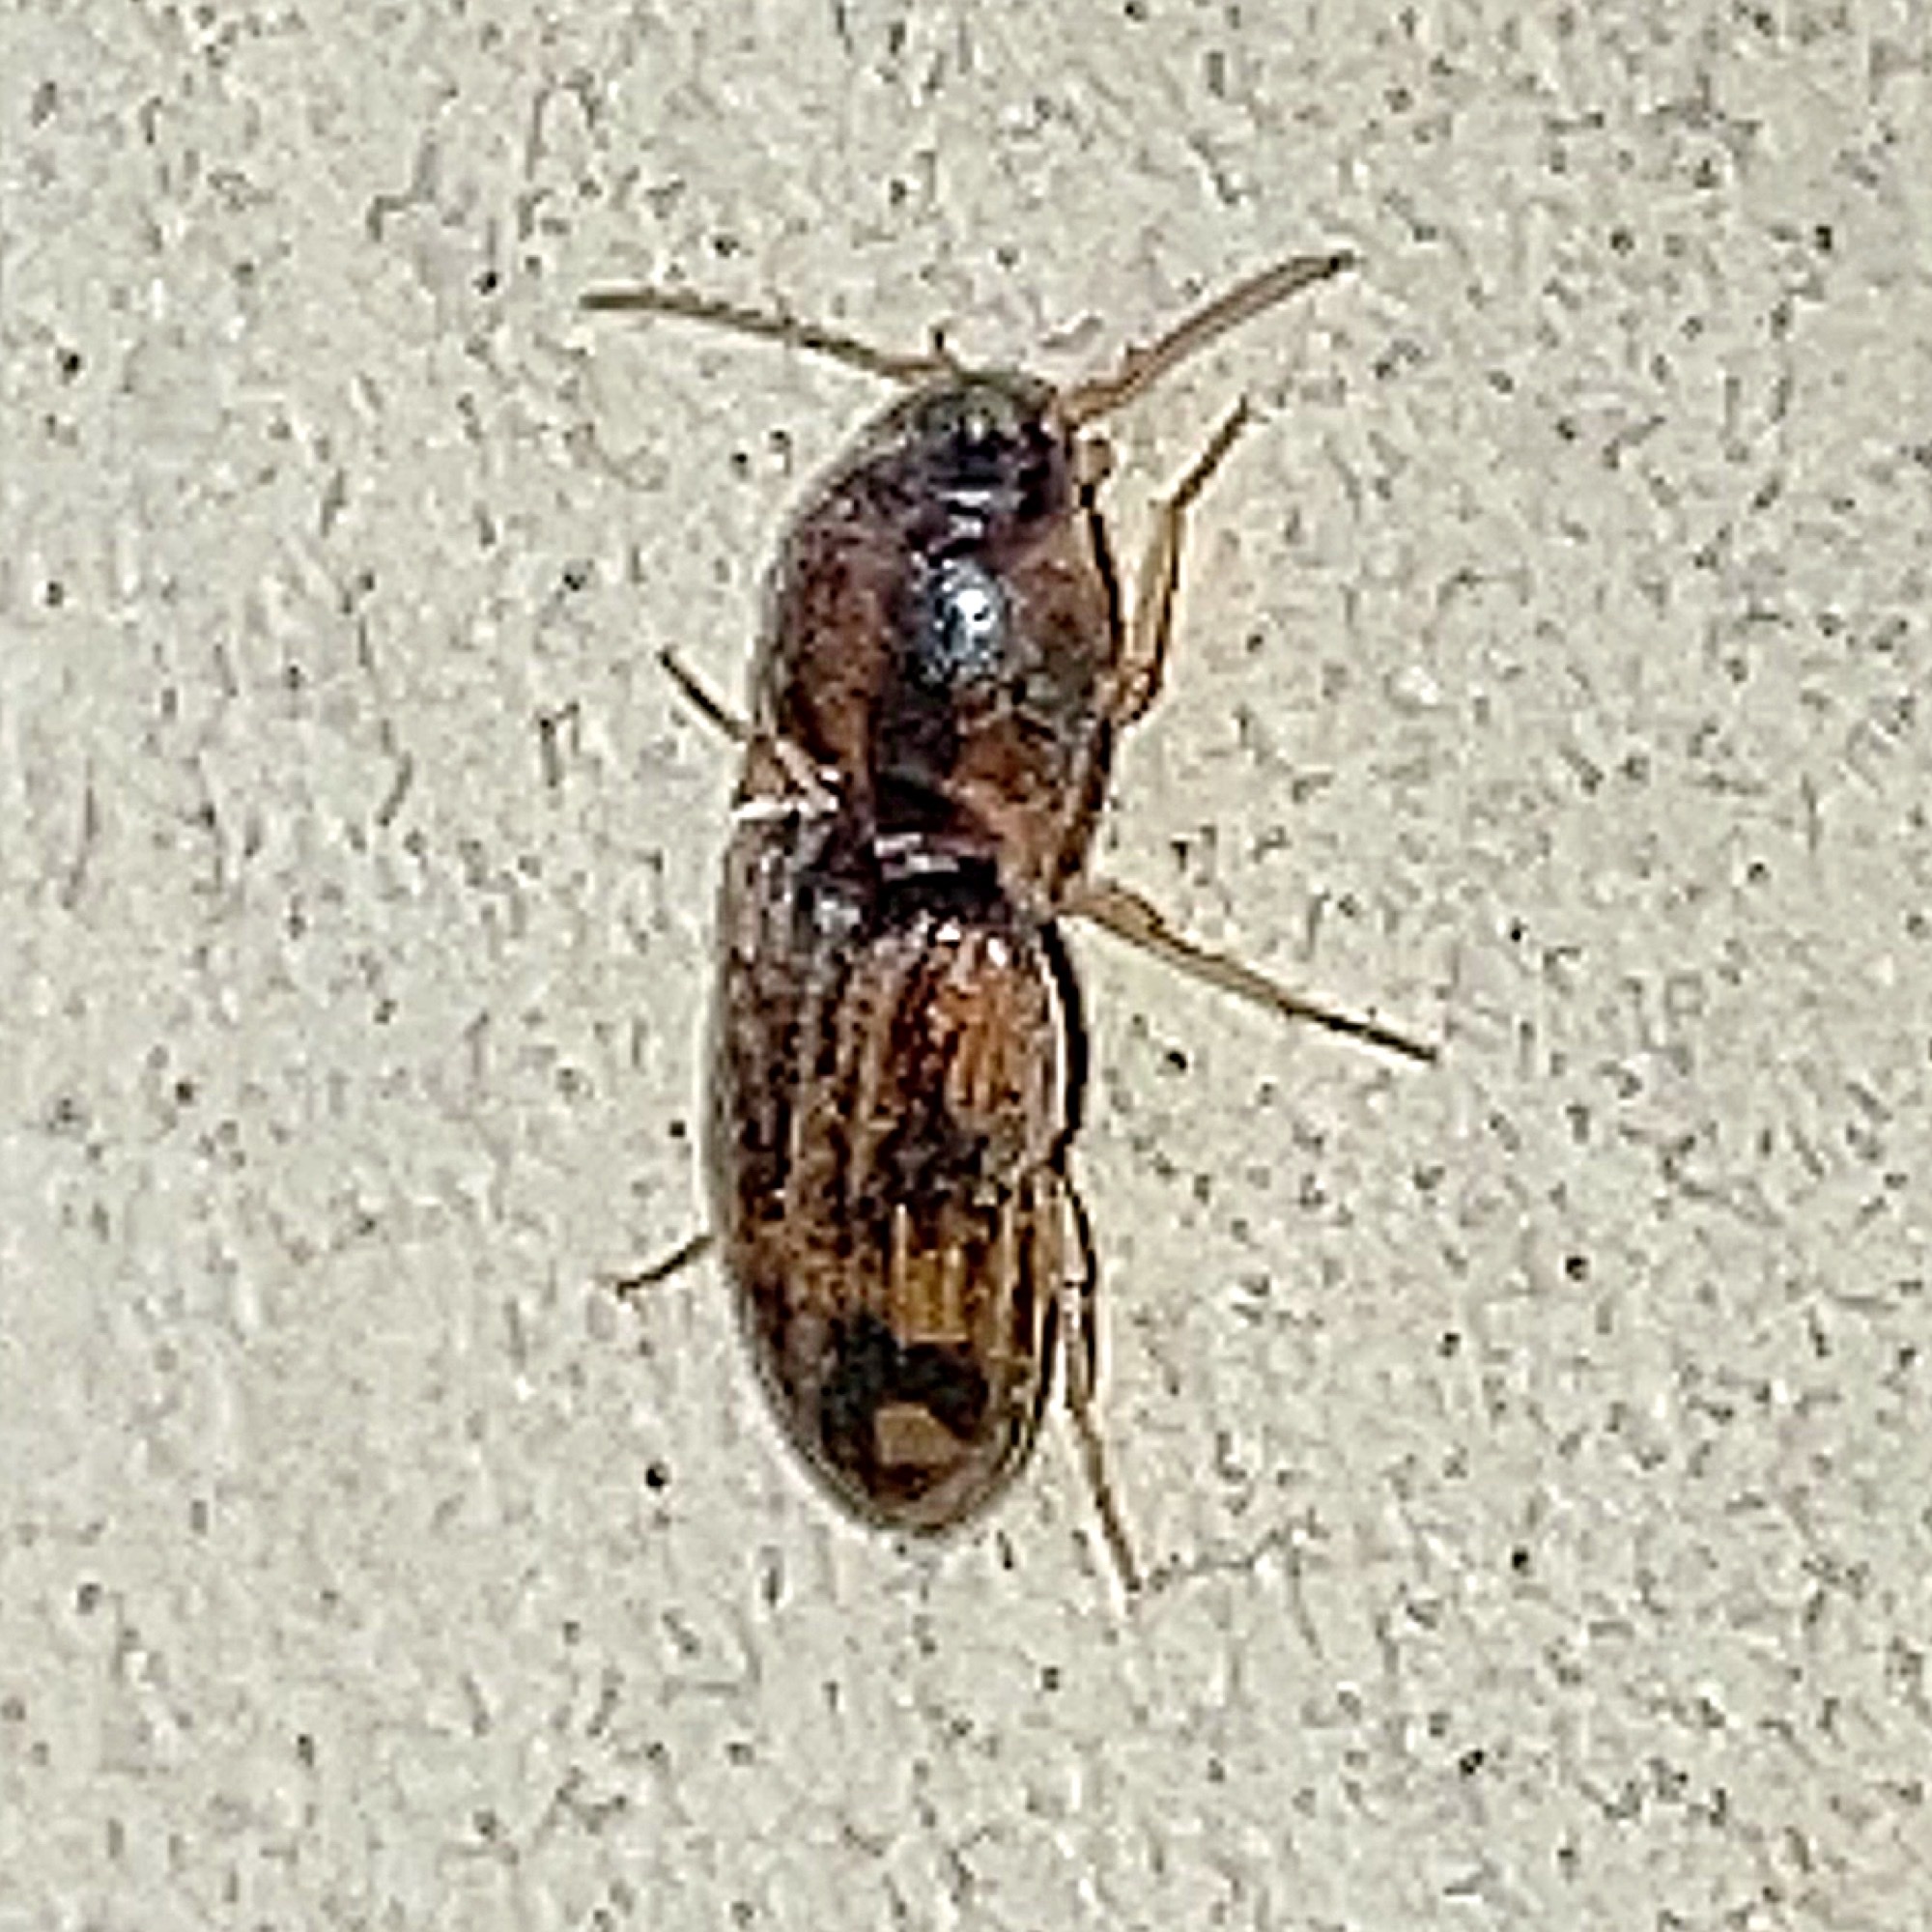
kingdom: Animalia
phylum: Arthropoda
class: Insecta
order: Coleoptera
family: Elateridae
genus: Monocrepidius
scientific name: Monocrepidius bellus
